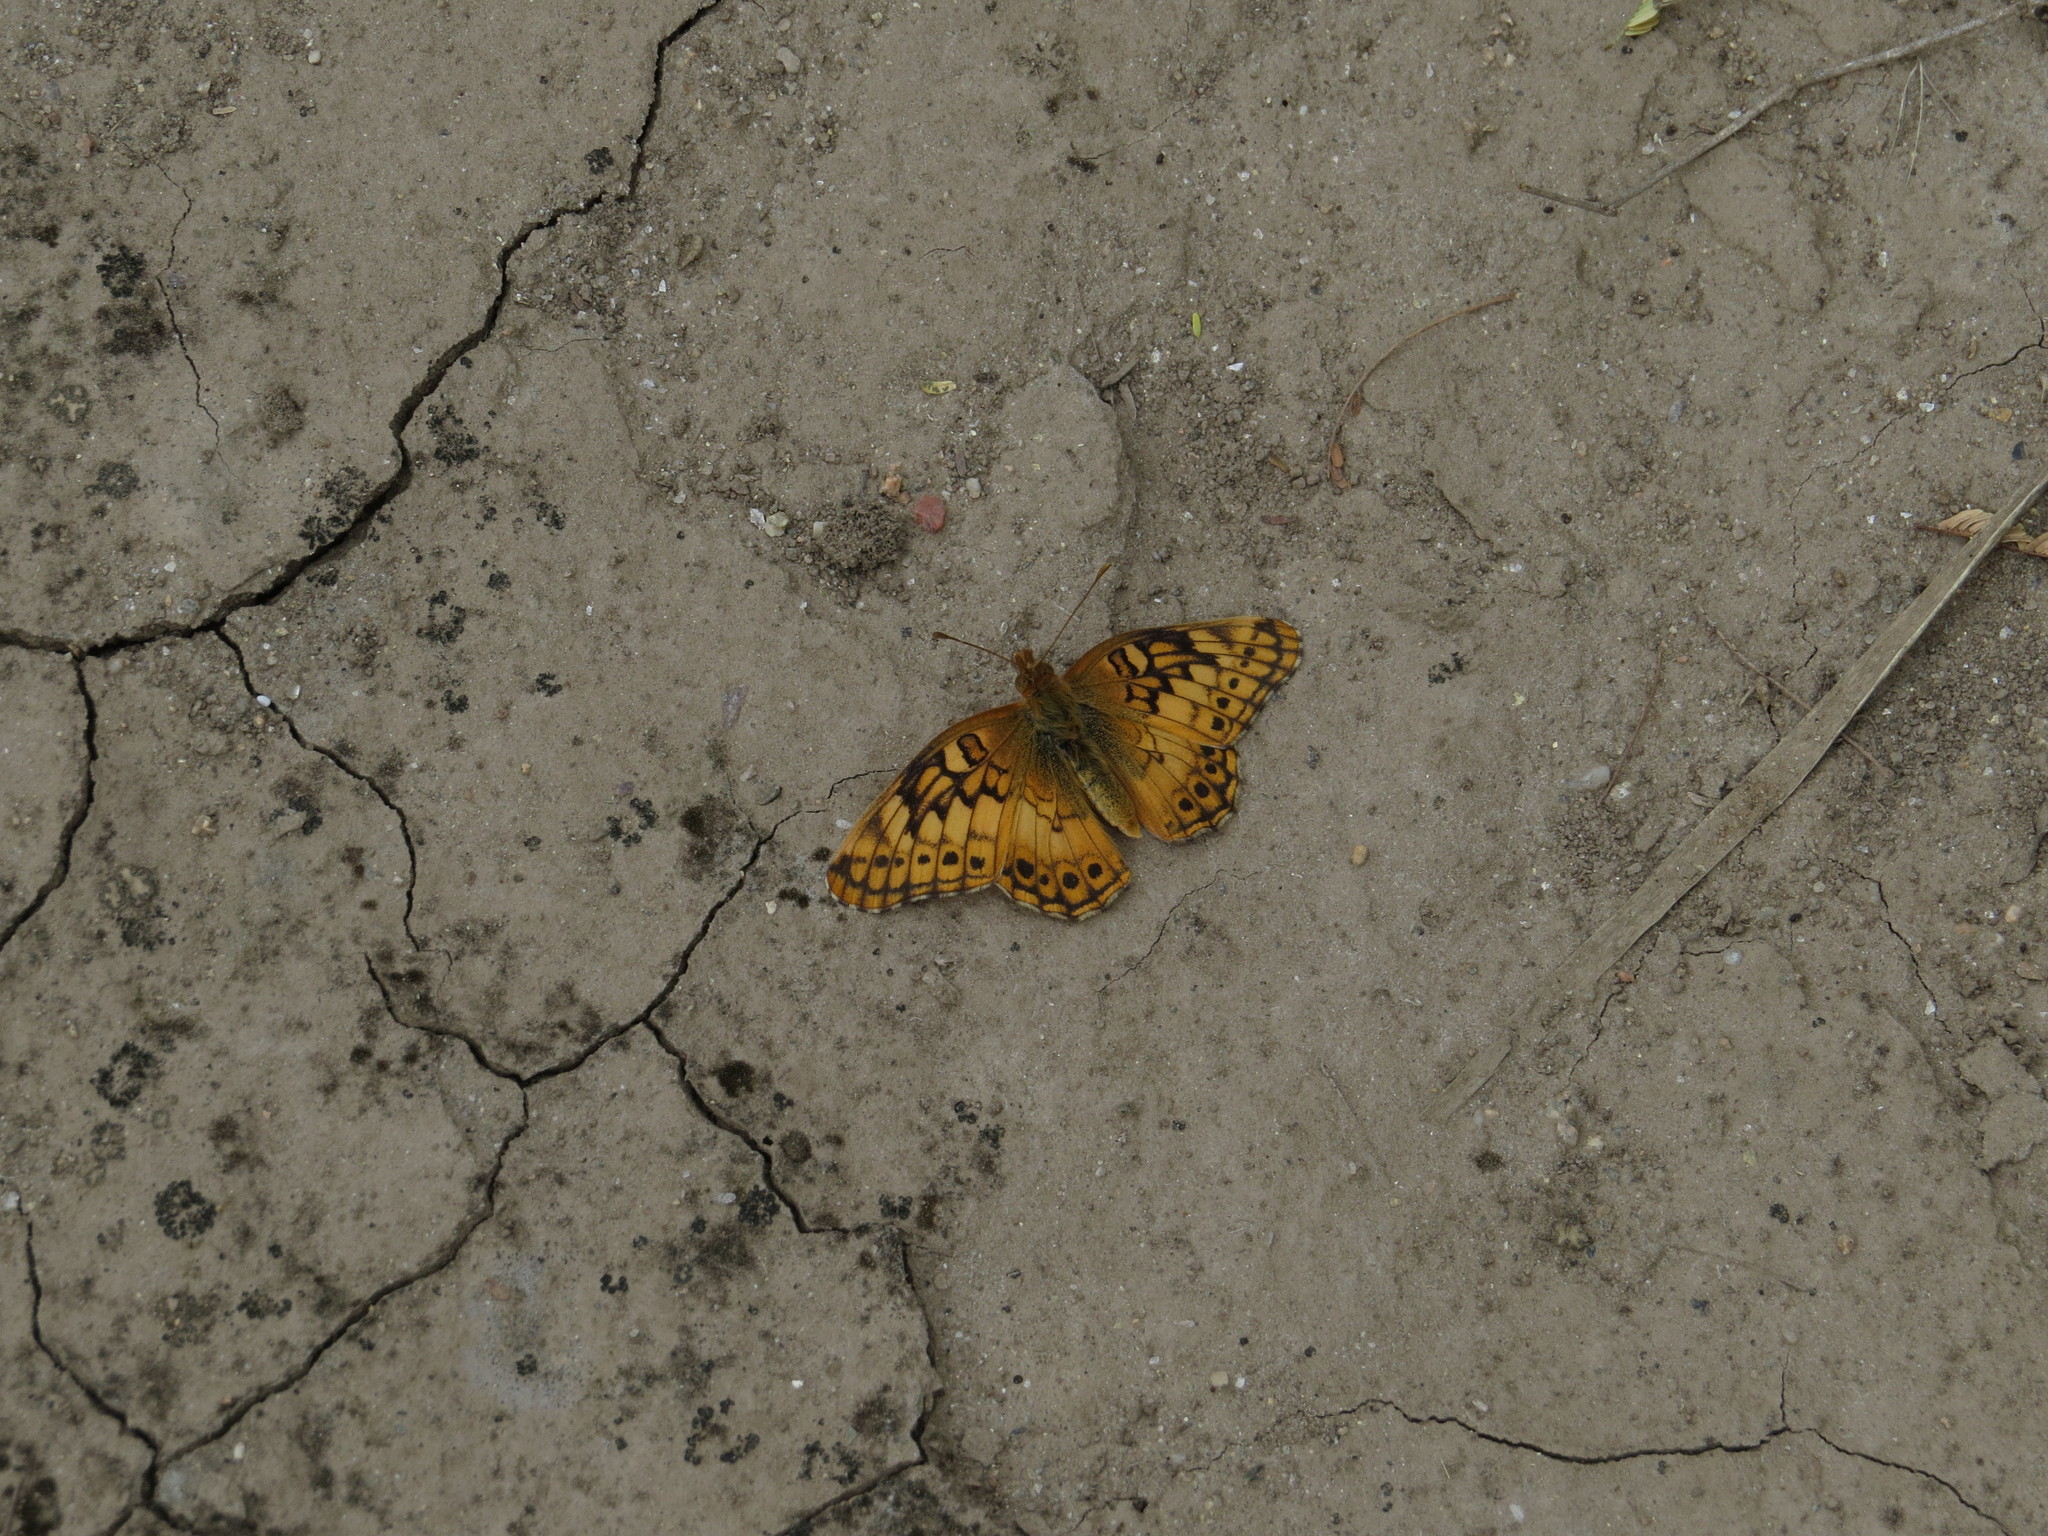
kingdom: Animalia
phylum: Arthropoda
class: Insecta
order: Lepidoptera
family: Nymphalidae
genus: Euptoieta
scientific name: Euptoieta hortensia
